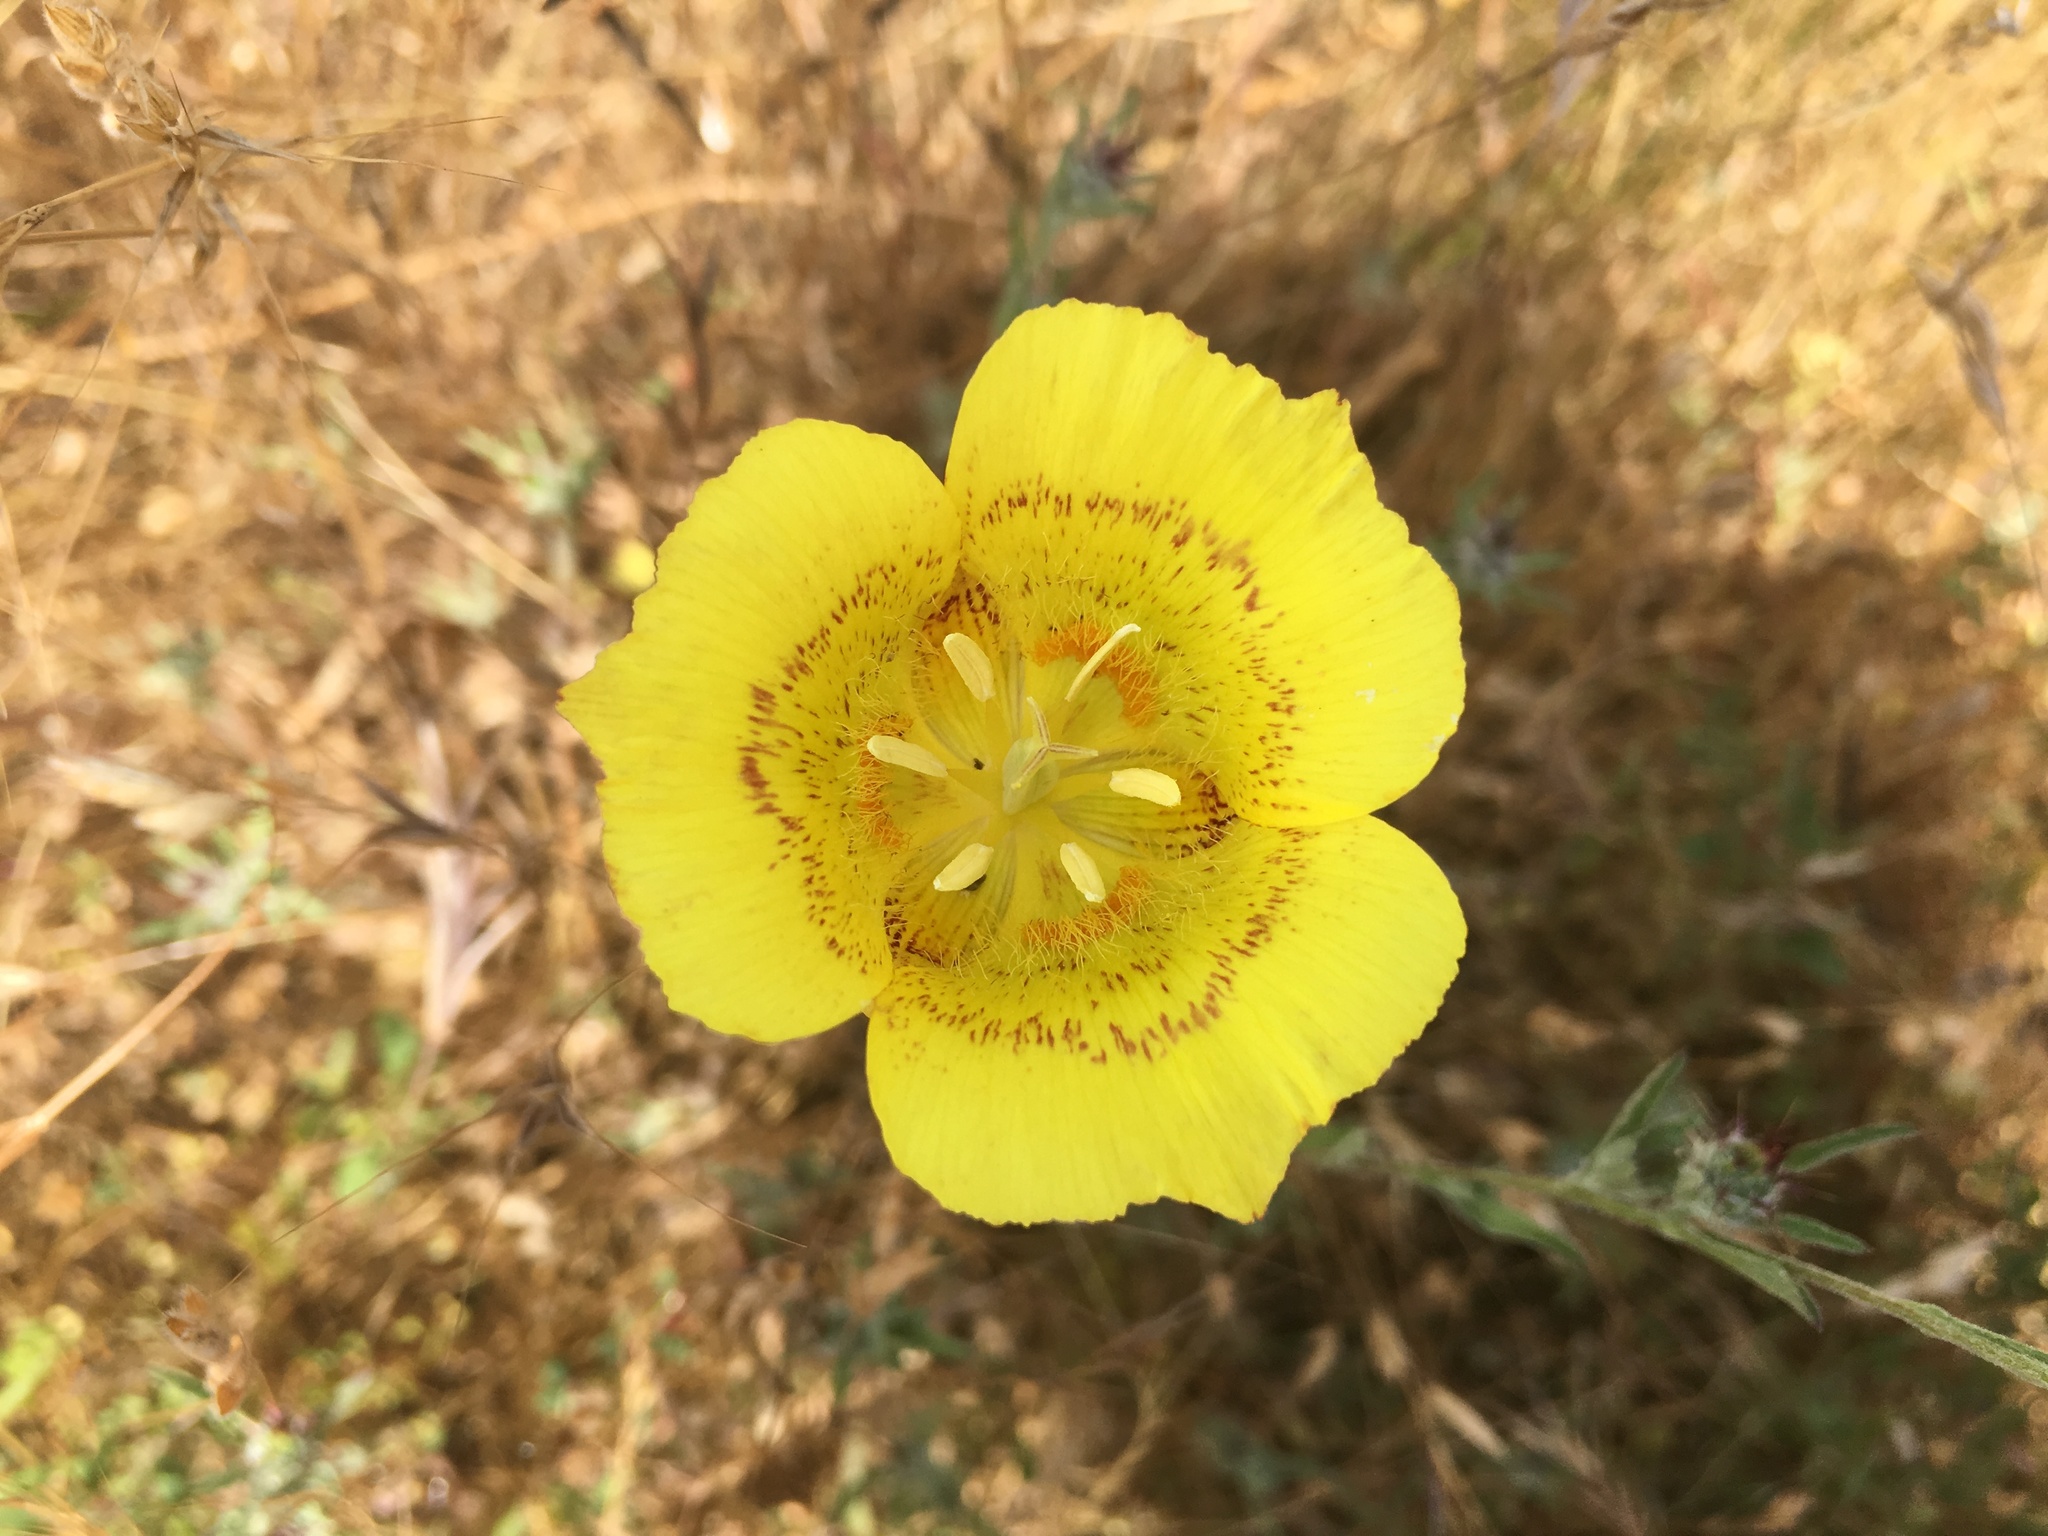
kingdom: Plantae
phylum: Tracheophyta
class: Liliopsida
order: Liliales
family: Liliaceae
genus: Calochortus
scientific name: Calochortus luteus
